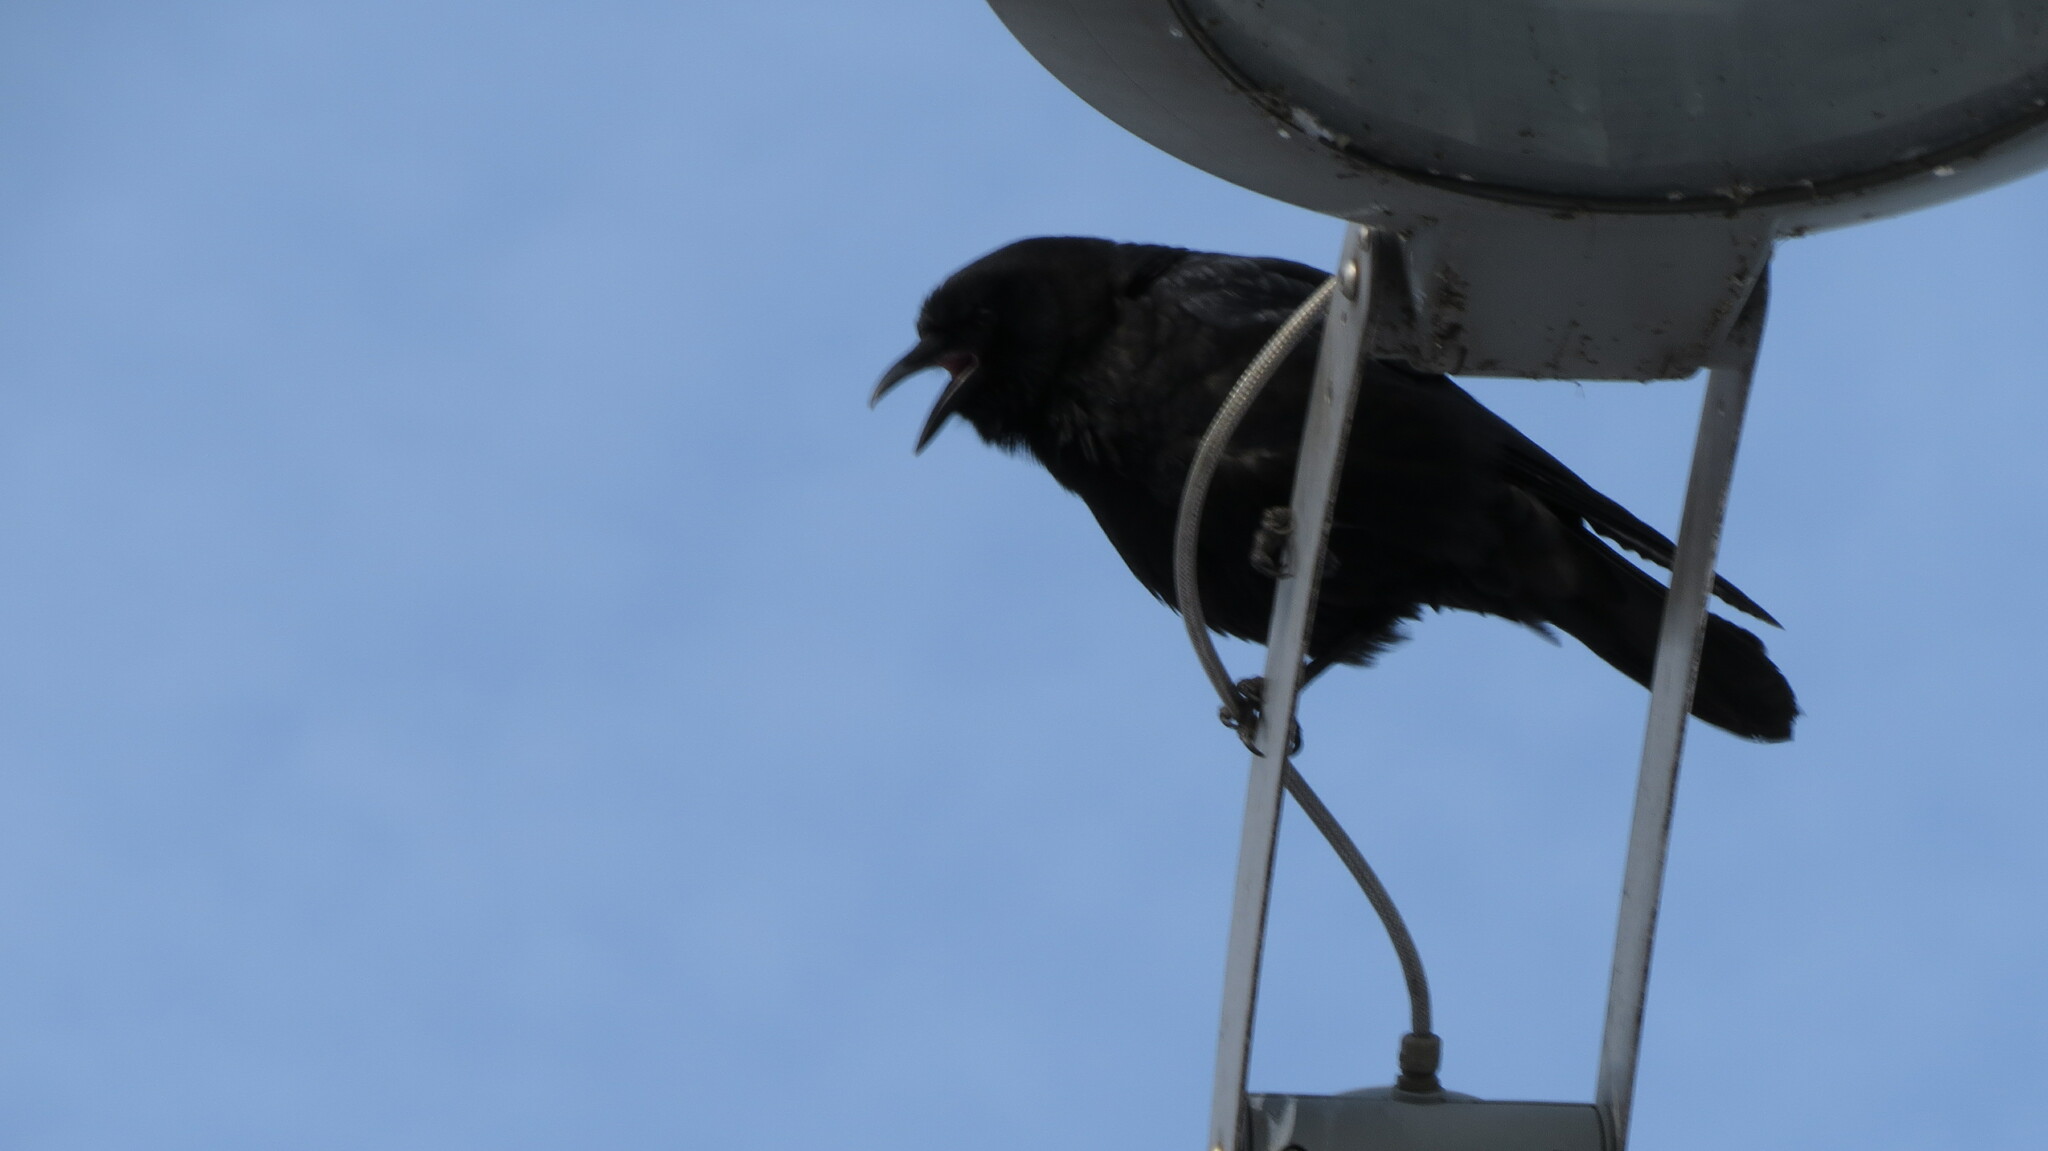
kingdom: Animalia
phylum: Chordata
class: Aves
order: Passeriformes
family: Corvidae
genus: Corvus
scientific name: Corvus brachyrhynchos
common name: American crow
